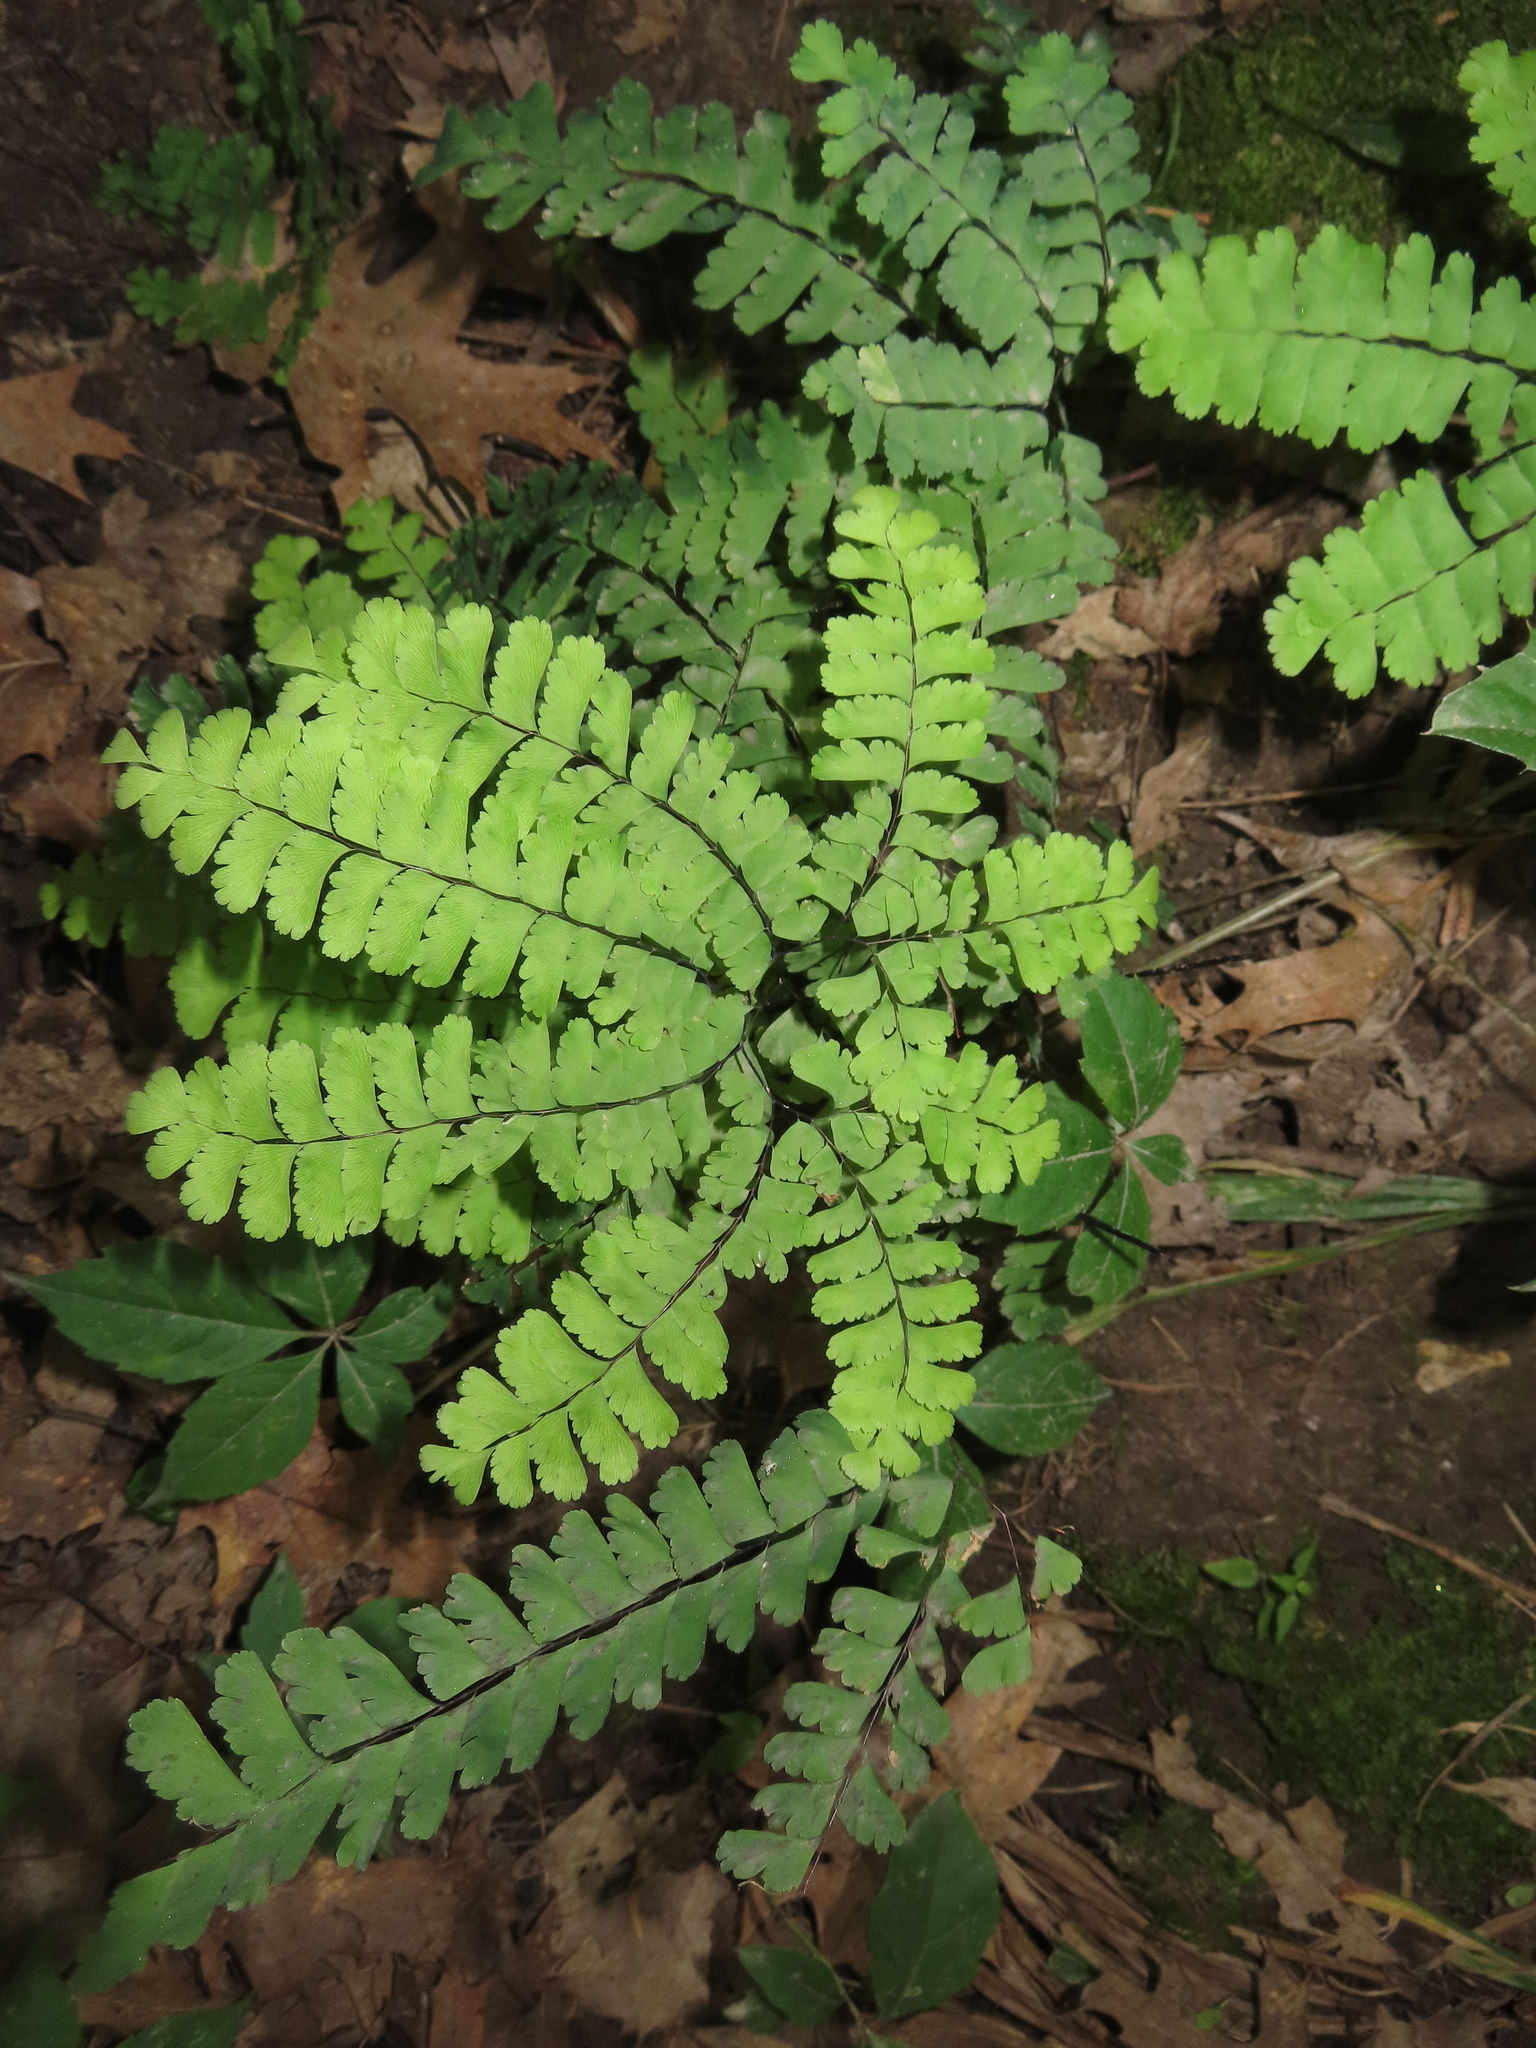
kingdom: Plantae
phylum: Tracheophyta
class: Polypodiopsida
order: Polypodiales
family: Pteridaceae
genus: Adiantum
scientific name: Adiantum pedatum
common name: Five-finger fern
